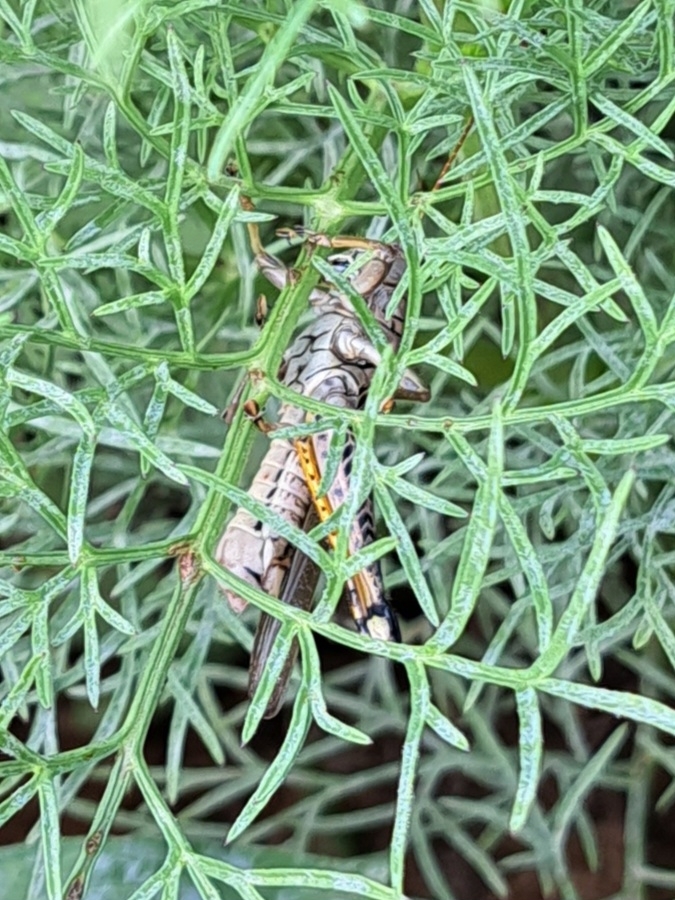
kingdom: Animalia
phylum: Arthropoda
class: Insecta
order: Orthoptera
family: Acrididae
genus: Melanoplus
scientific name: Melanoplus differentialis
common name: Differential grasshopper
